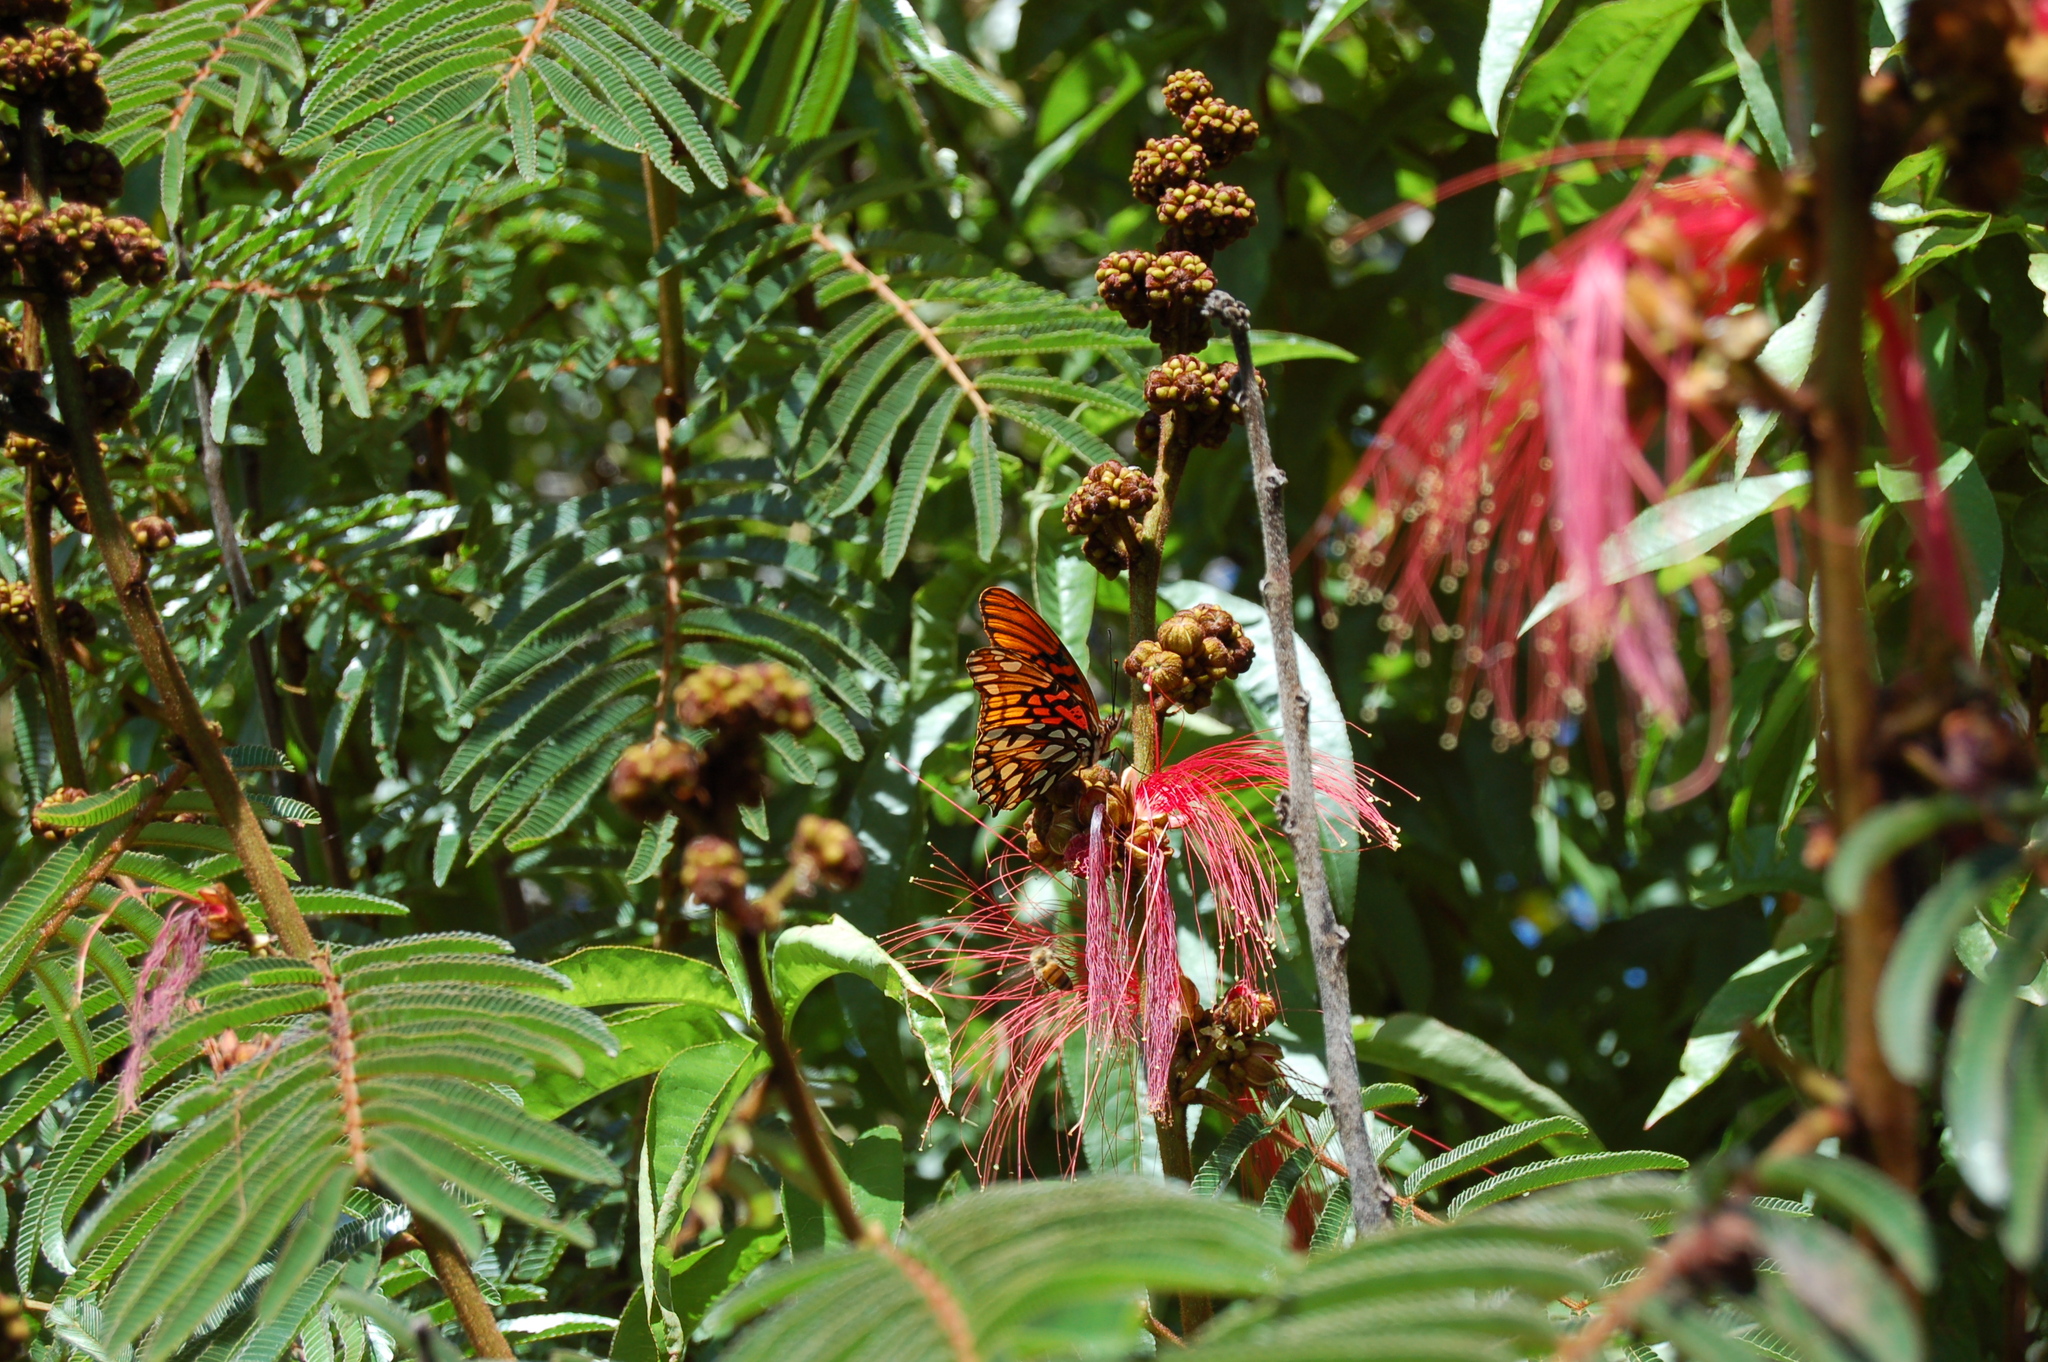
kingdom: Plantae
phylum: Tracheophyta
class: Magnoliopsida
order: Fabales
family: Fabaceae
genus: Calliandra
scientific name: Calliandra houstoniana
